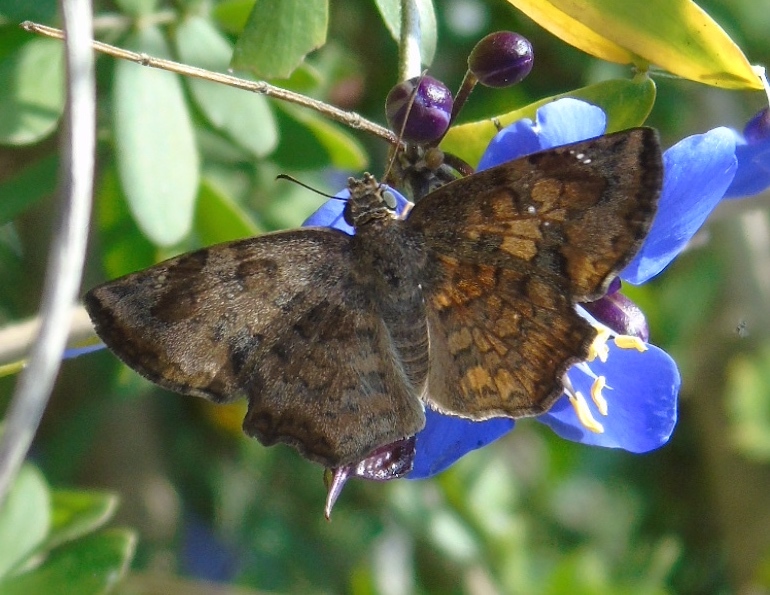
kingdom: Animalia
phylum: Arthropoda
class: Insecta
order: Lepidoptera
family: Hesperiidae
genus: Antigonus
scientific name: Antigonus erosus
